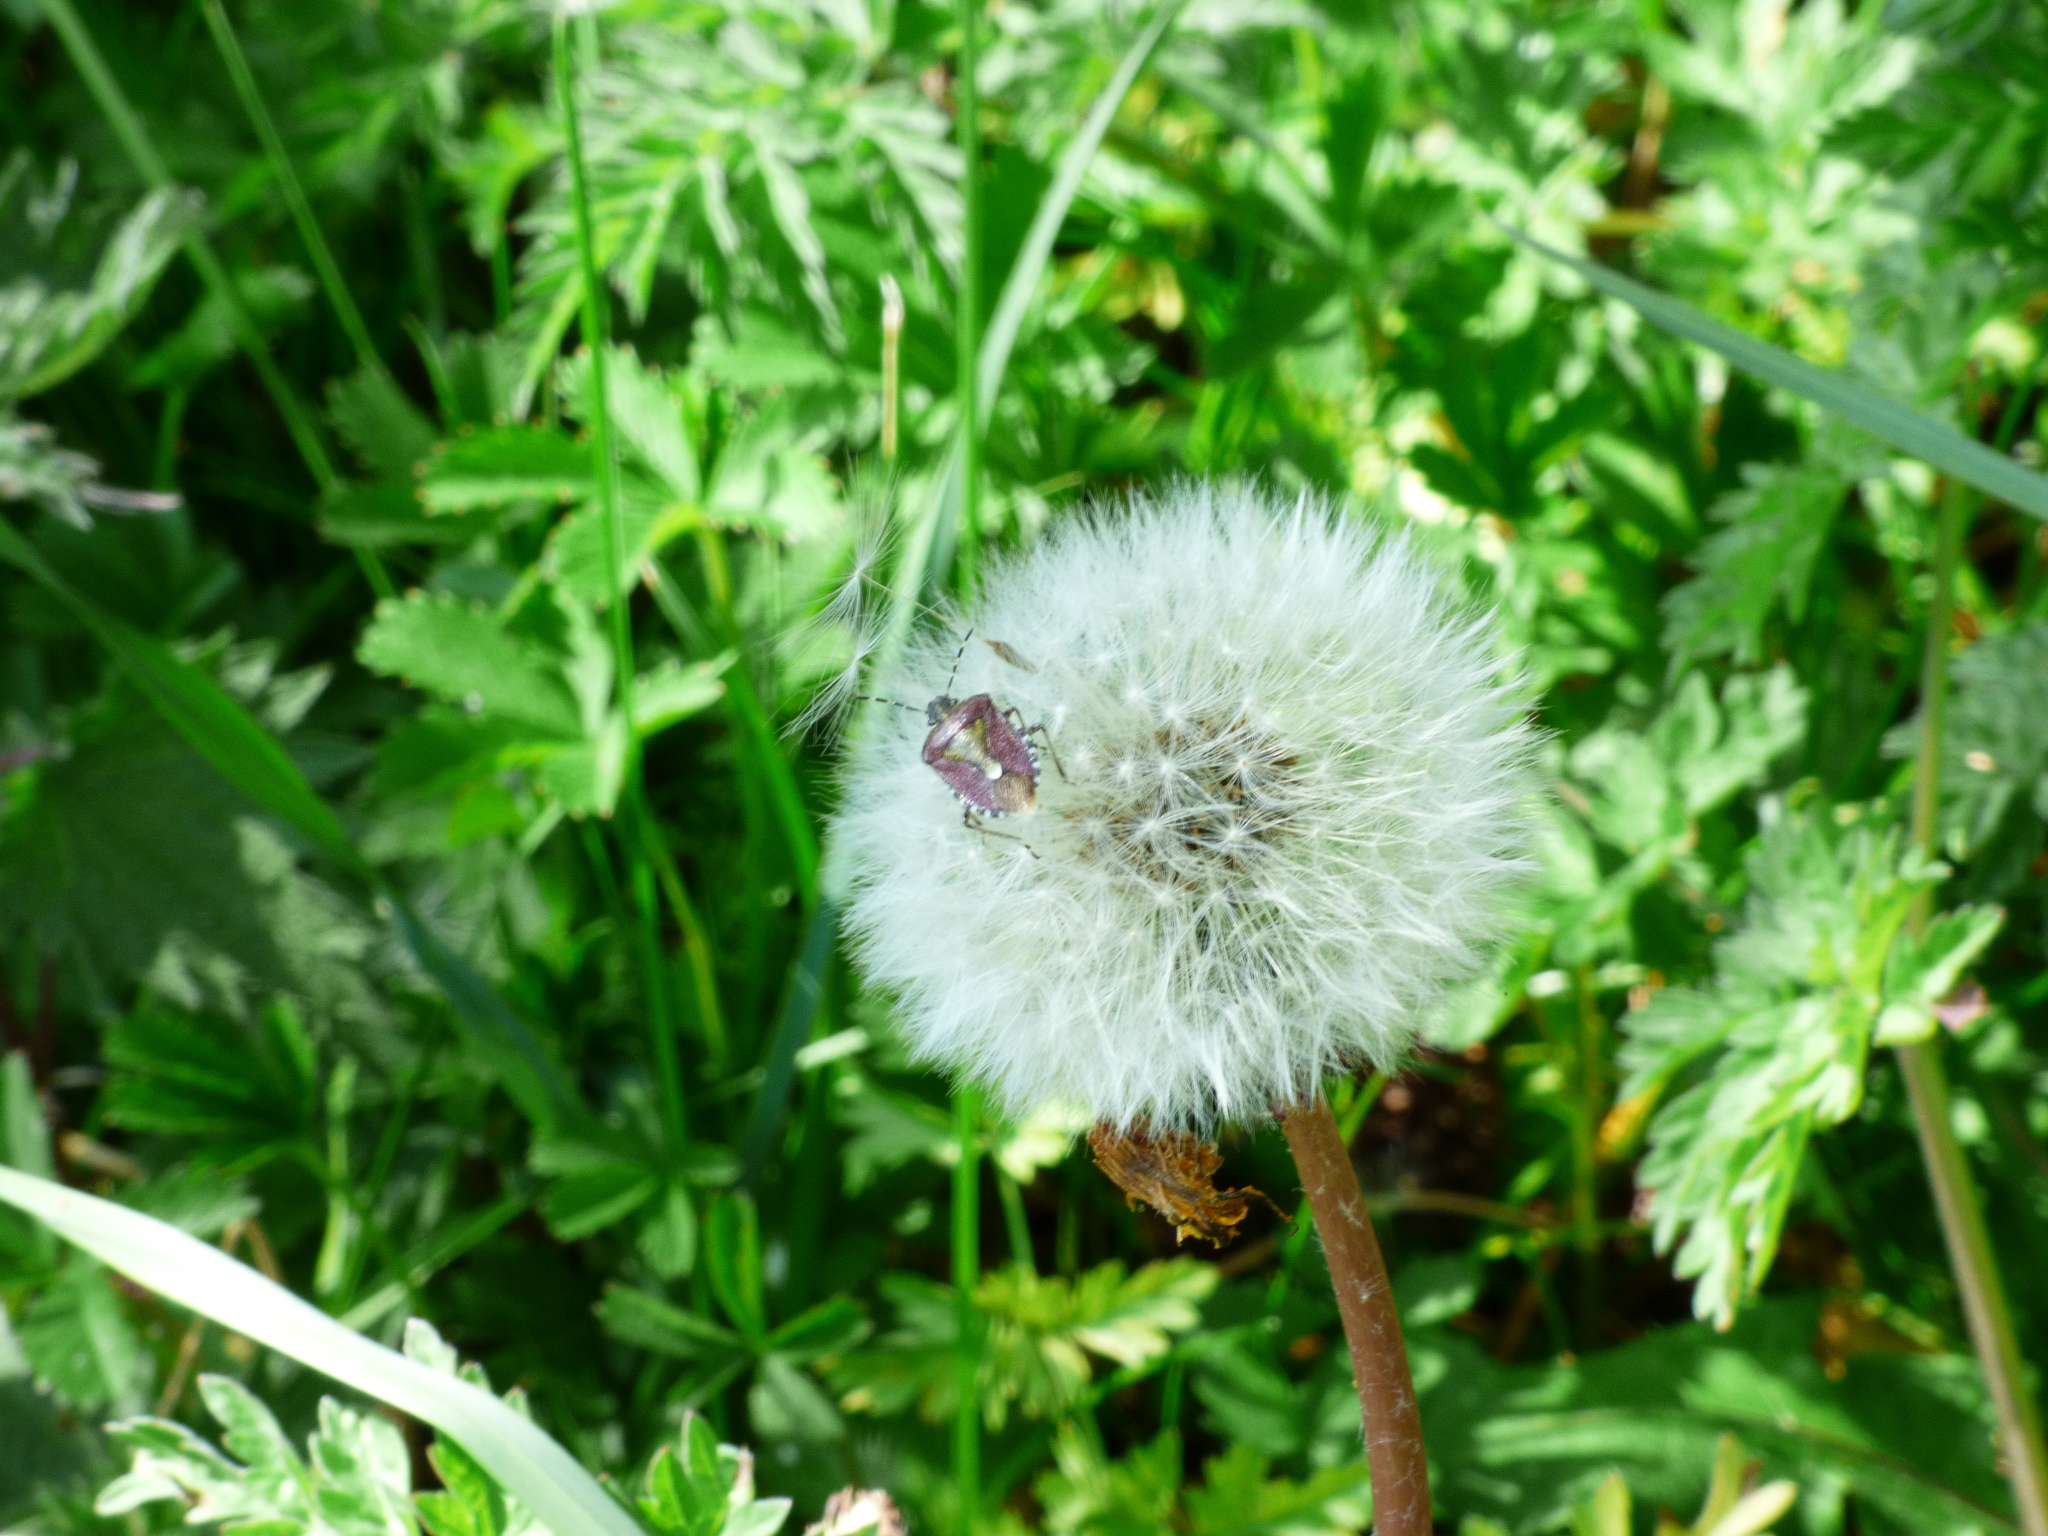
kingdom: Animalia
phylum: Arthropoda
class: Insecta
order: Hemiptera
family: Pentatomidae
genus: Dolycoris
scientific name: Dolycoris baccarum
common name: Sloe bug
